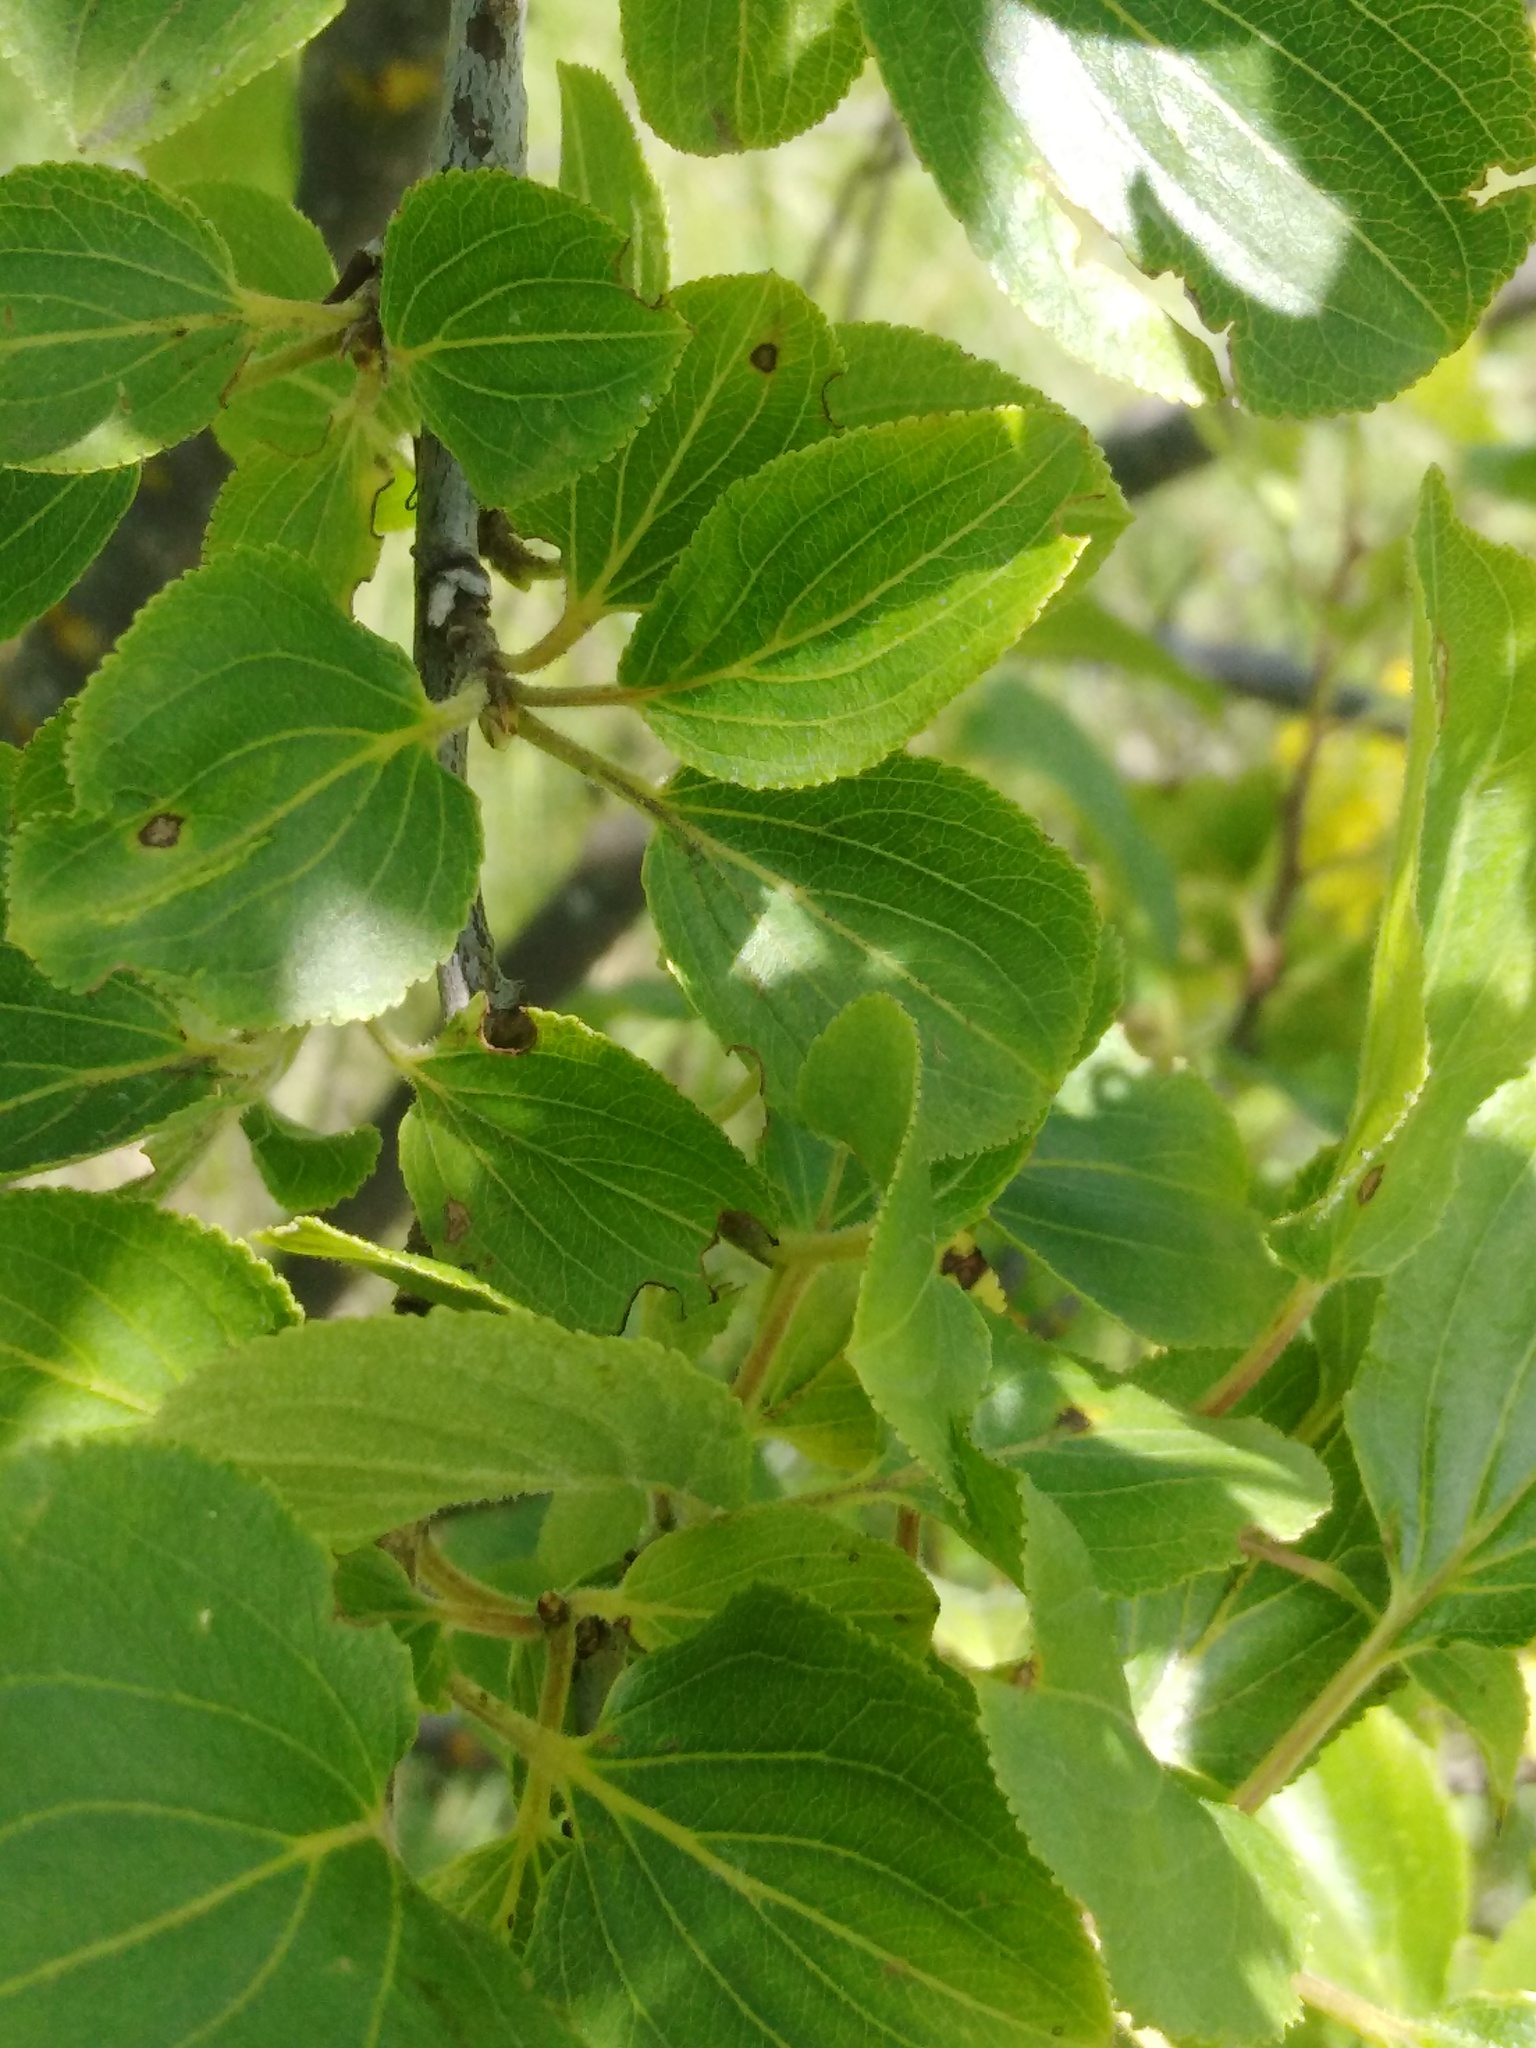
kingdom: Plantae
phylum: Tracheophyta
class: Magnoliopsida
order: Rosales
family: Rhamnaceae
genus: Rhamnus
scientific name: Rhamnus cathartica
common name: Common buckthorn
